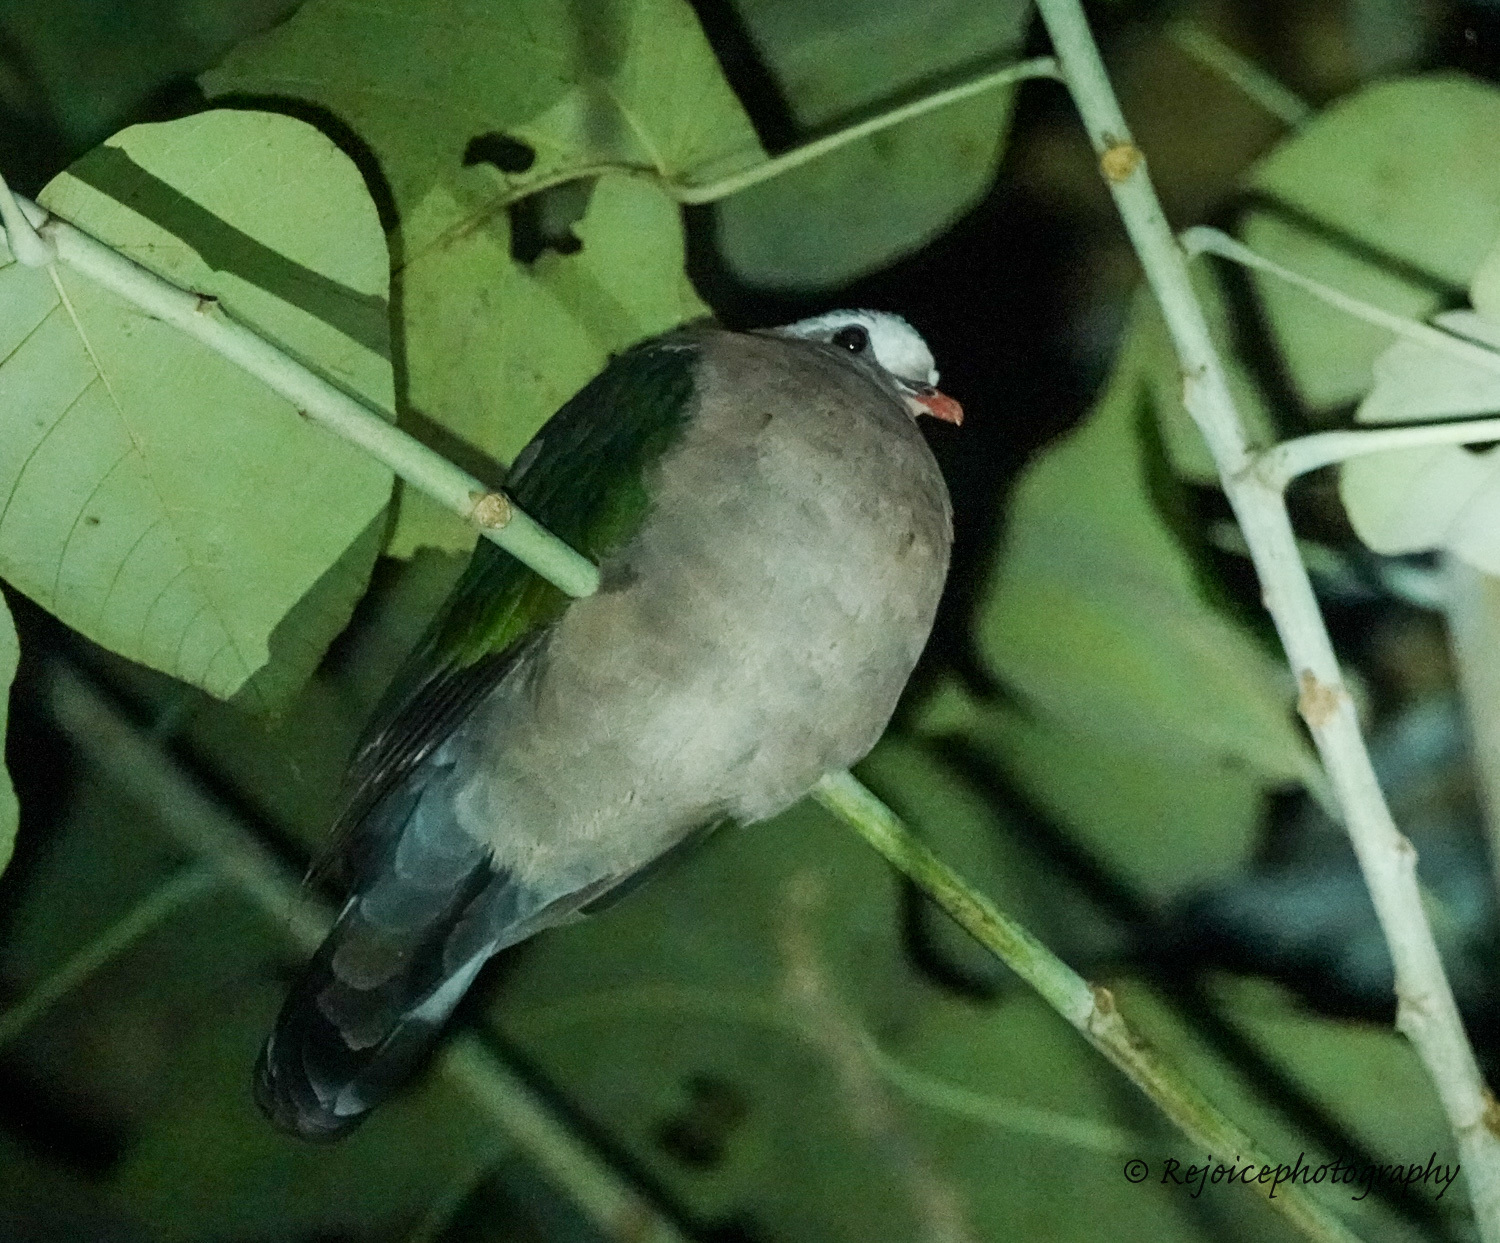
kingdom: Animalia
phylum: Chordata
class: Aves
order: Columbiformes
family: Columbidae
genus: Chalcophaps
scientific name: Chalcophaps indica
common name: Common emerald dove
